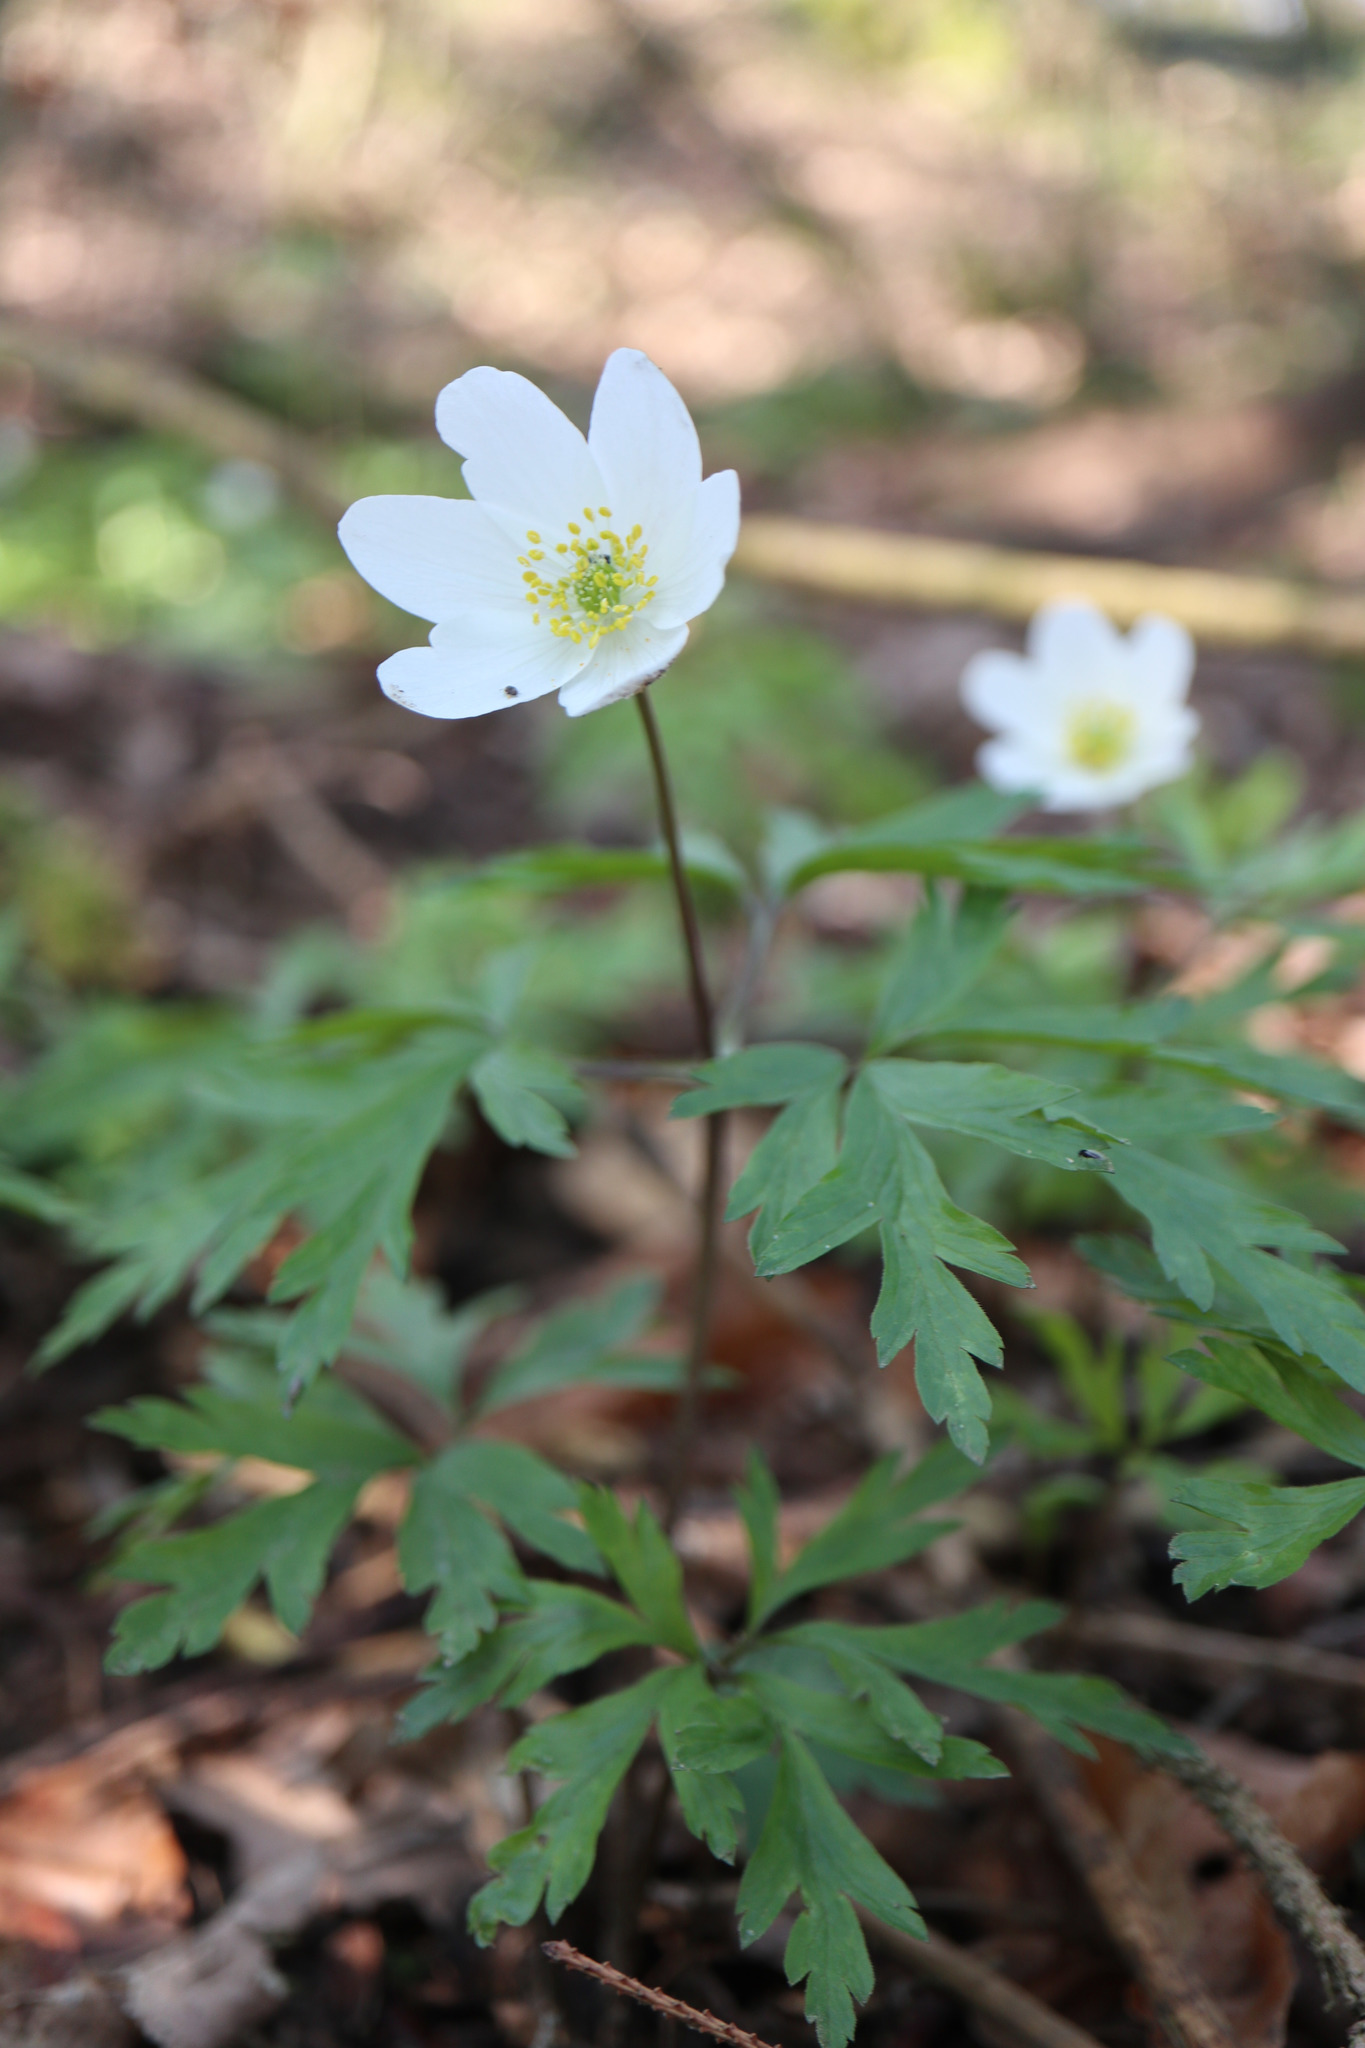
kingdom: Plantae
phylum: Tracheophyta
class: Magnoliopsida
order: Ranunculales
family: Ranunculaceae
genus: Anemone
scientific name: Anemone nemorosa
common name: Wood anemone
